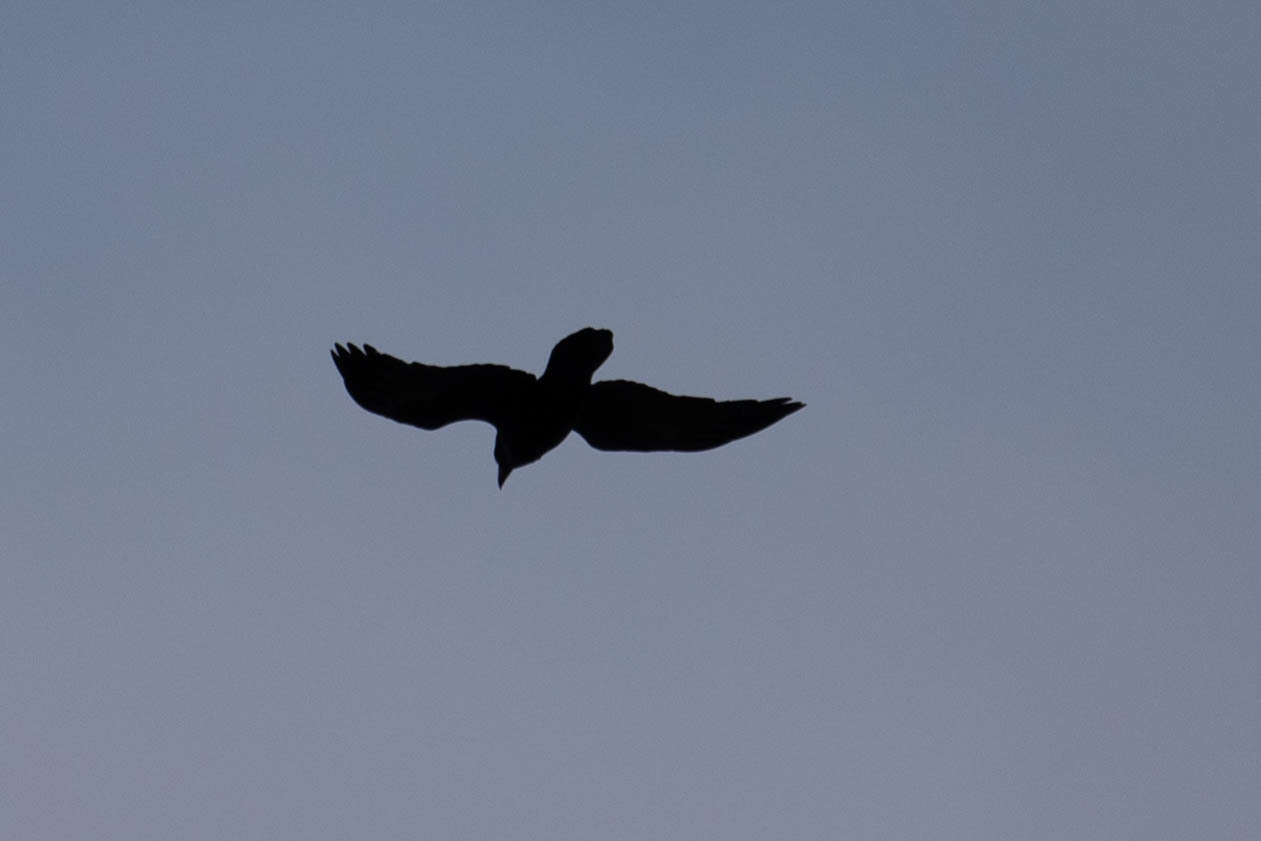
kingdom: Animalia
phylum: Chordata
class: Aves
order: Passeriformes
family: Corvidae
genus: Corvus
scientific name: Corvus corax
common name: Common raven
